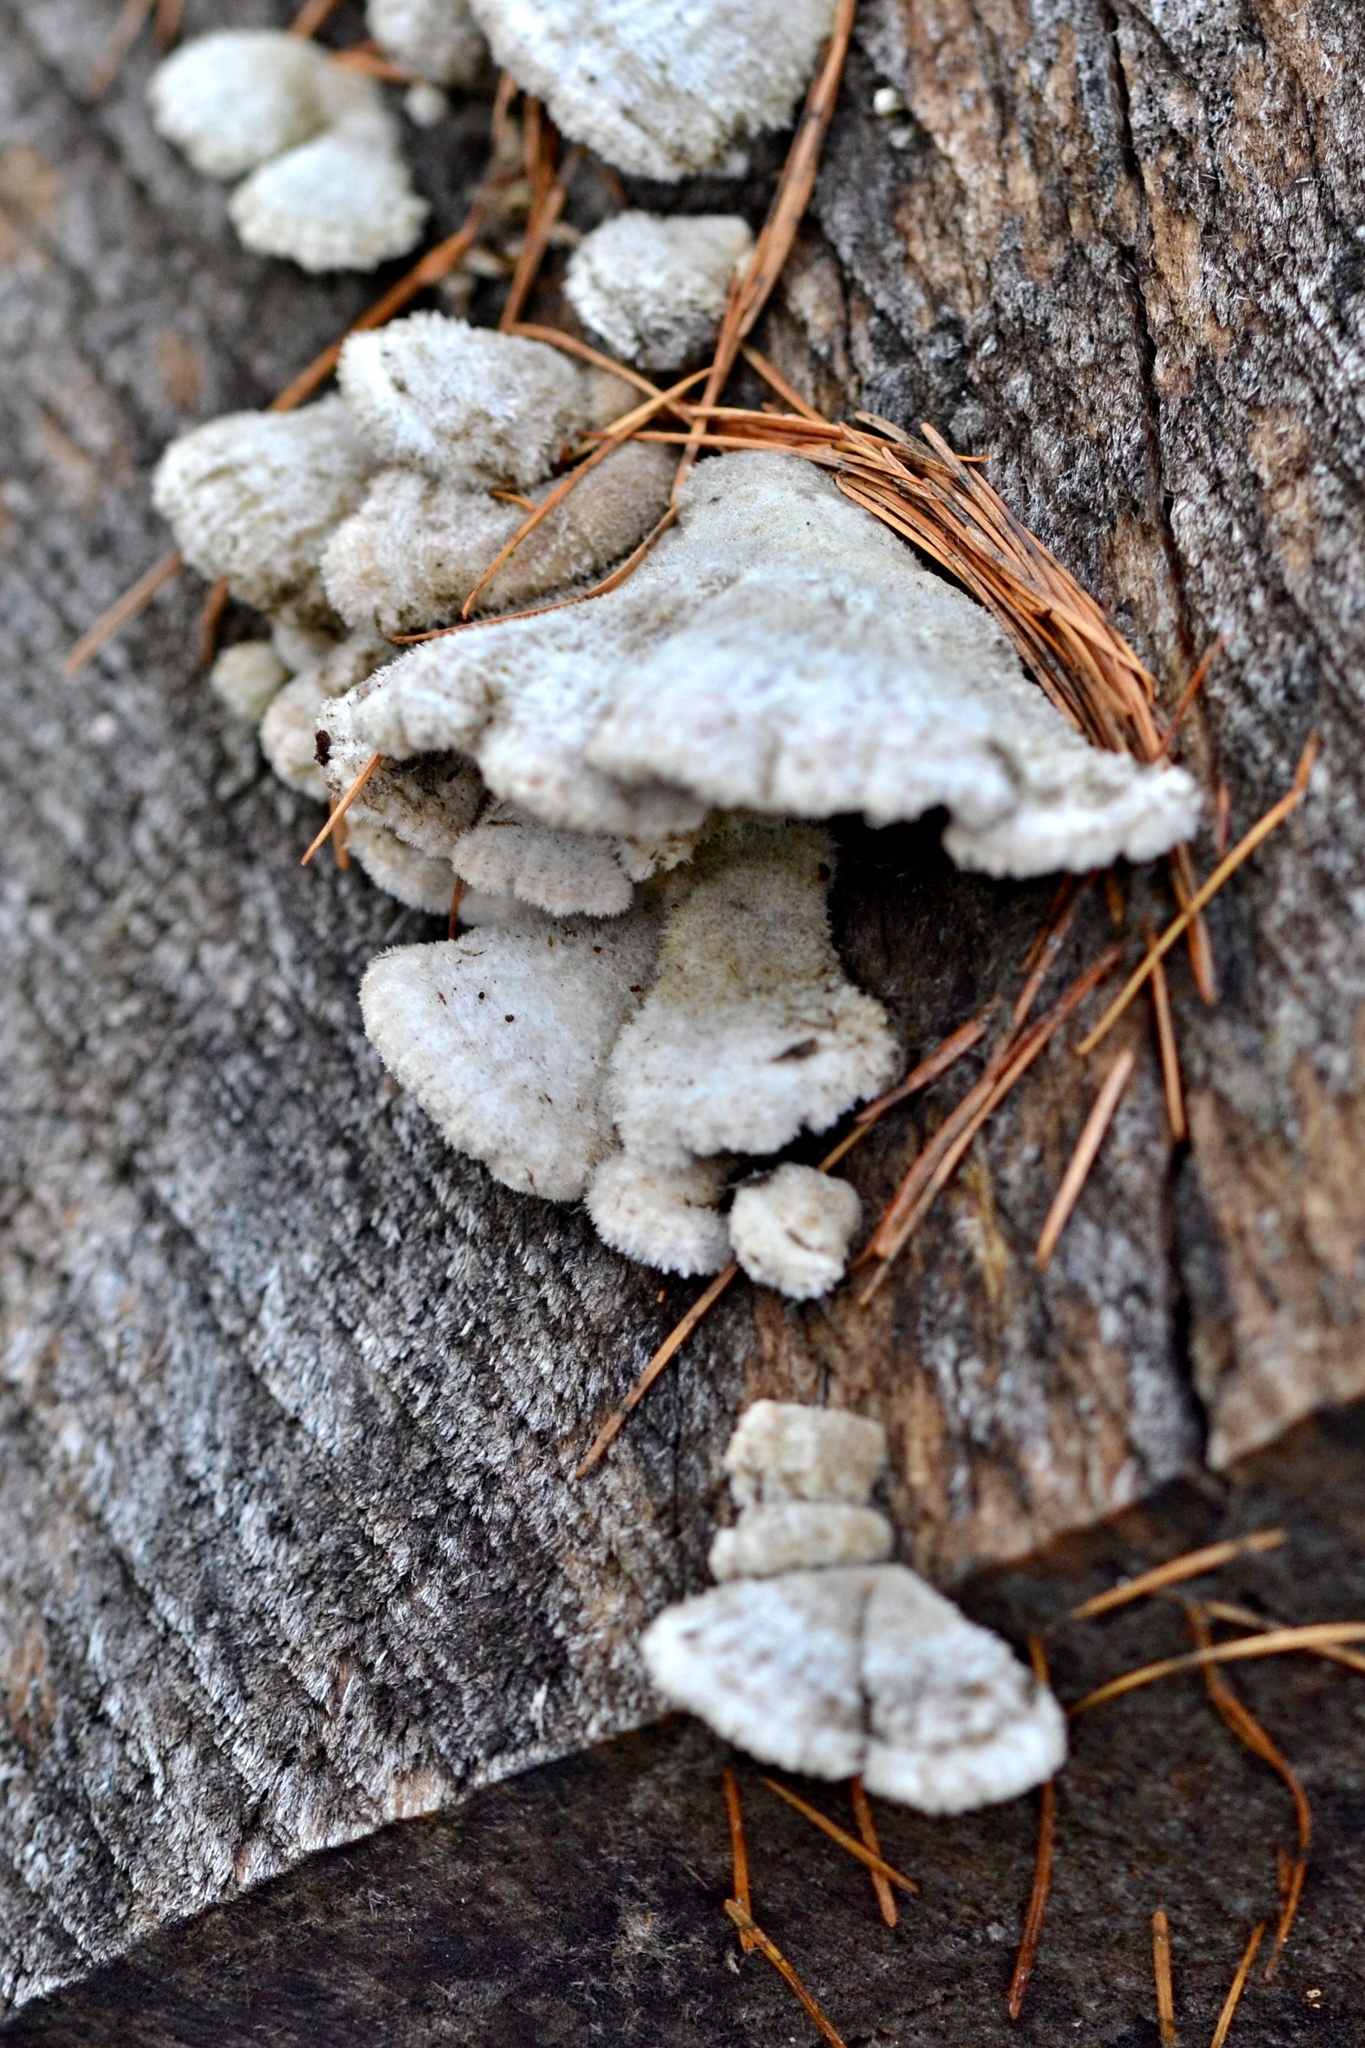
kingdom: Fungi
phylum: Basidiomycota
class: Agaricomycetes
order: Agaricales
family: Schizophyllaceae
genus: Schizophyllum
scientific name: Schizophyllum commune
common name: Common porecrust
